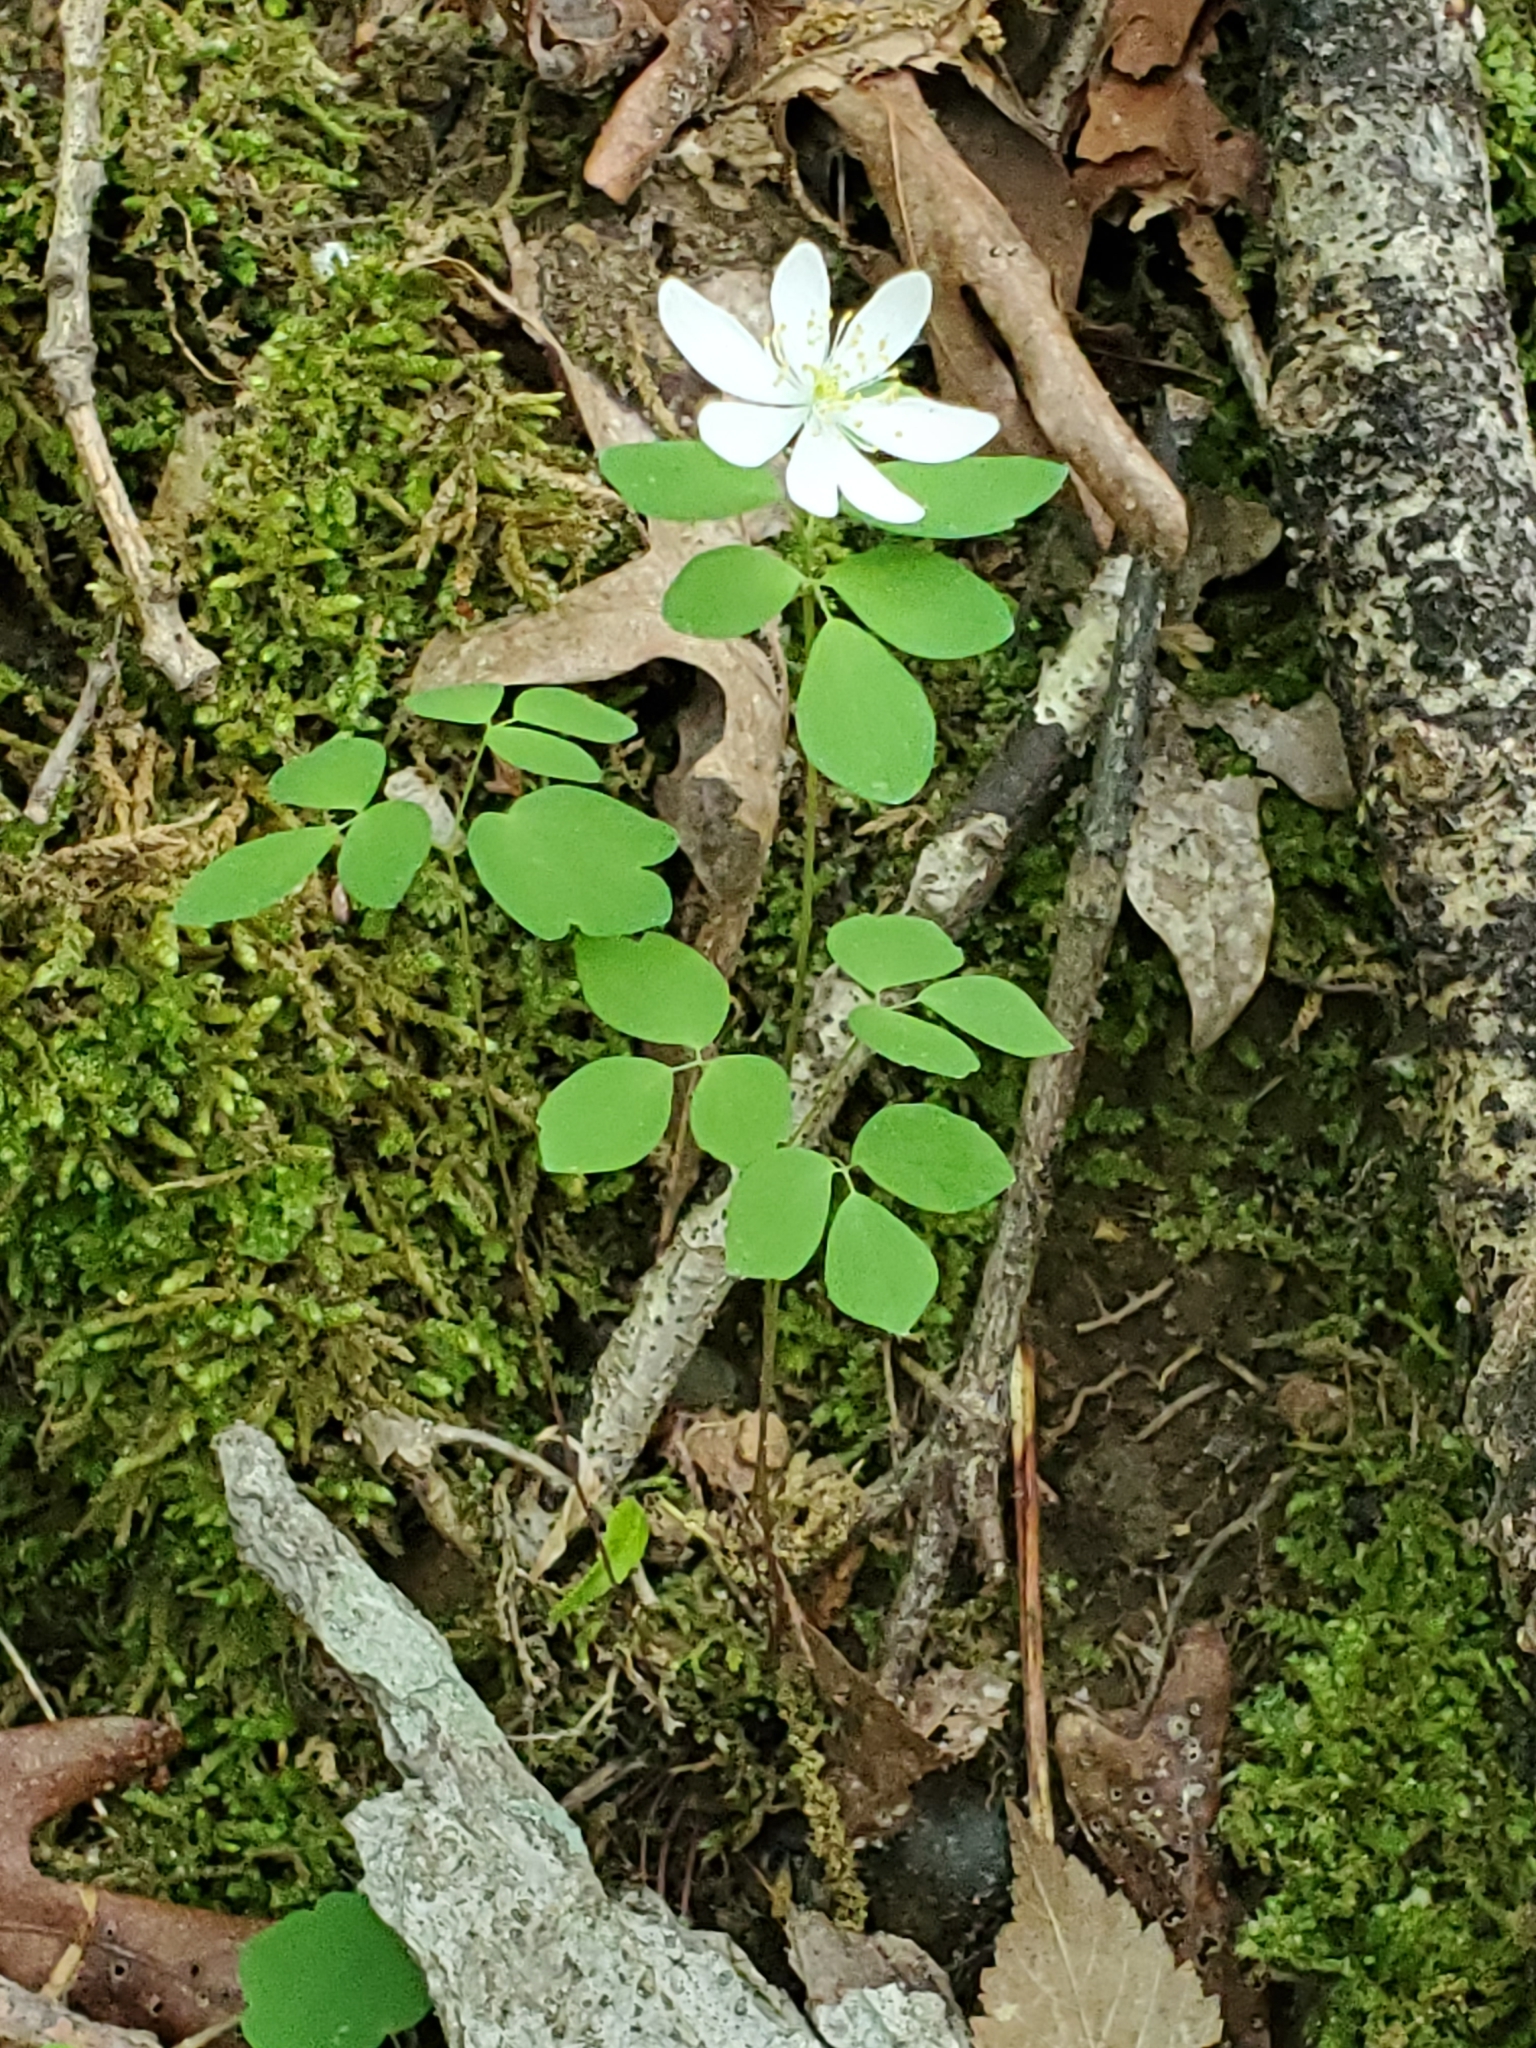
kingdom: Plantae
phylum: Tracheophyta
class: Magnoliopsida
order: Ranunculales
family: Ranunculaceae
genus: Thalictrum
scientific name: Thalictrum thalictroides
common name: Rue-anemone
